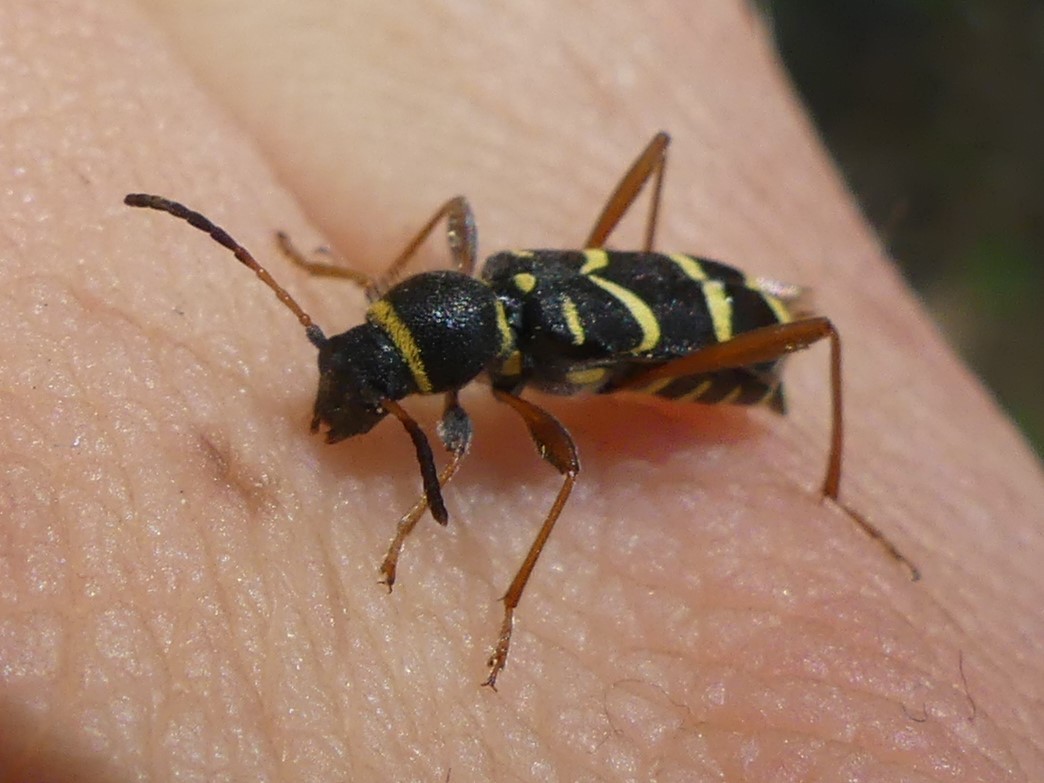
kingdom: Animalia
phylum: Arthropoda
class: Insecta
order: Coleoptera
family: Cerambycidae
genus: Clytus
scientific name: Clytus arietis
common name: Wasp beetle
